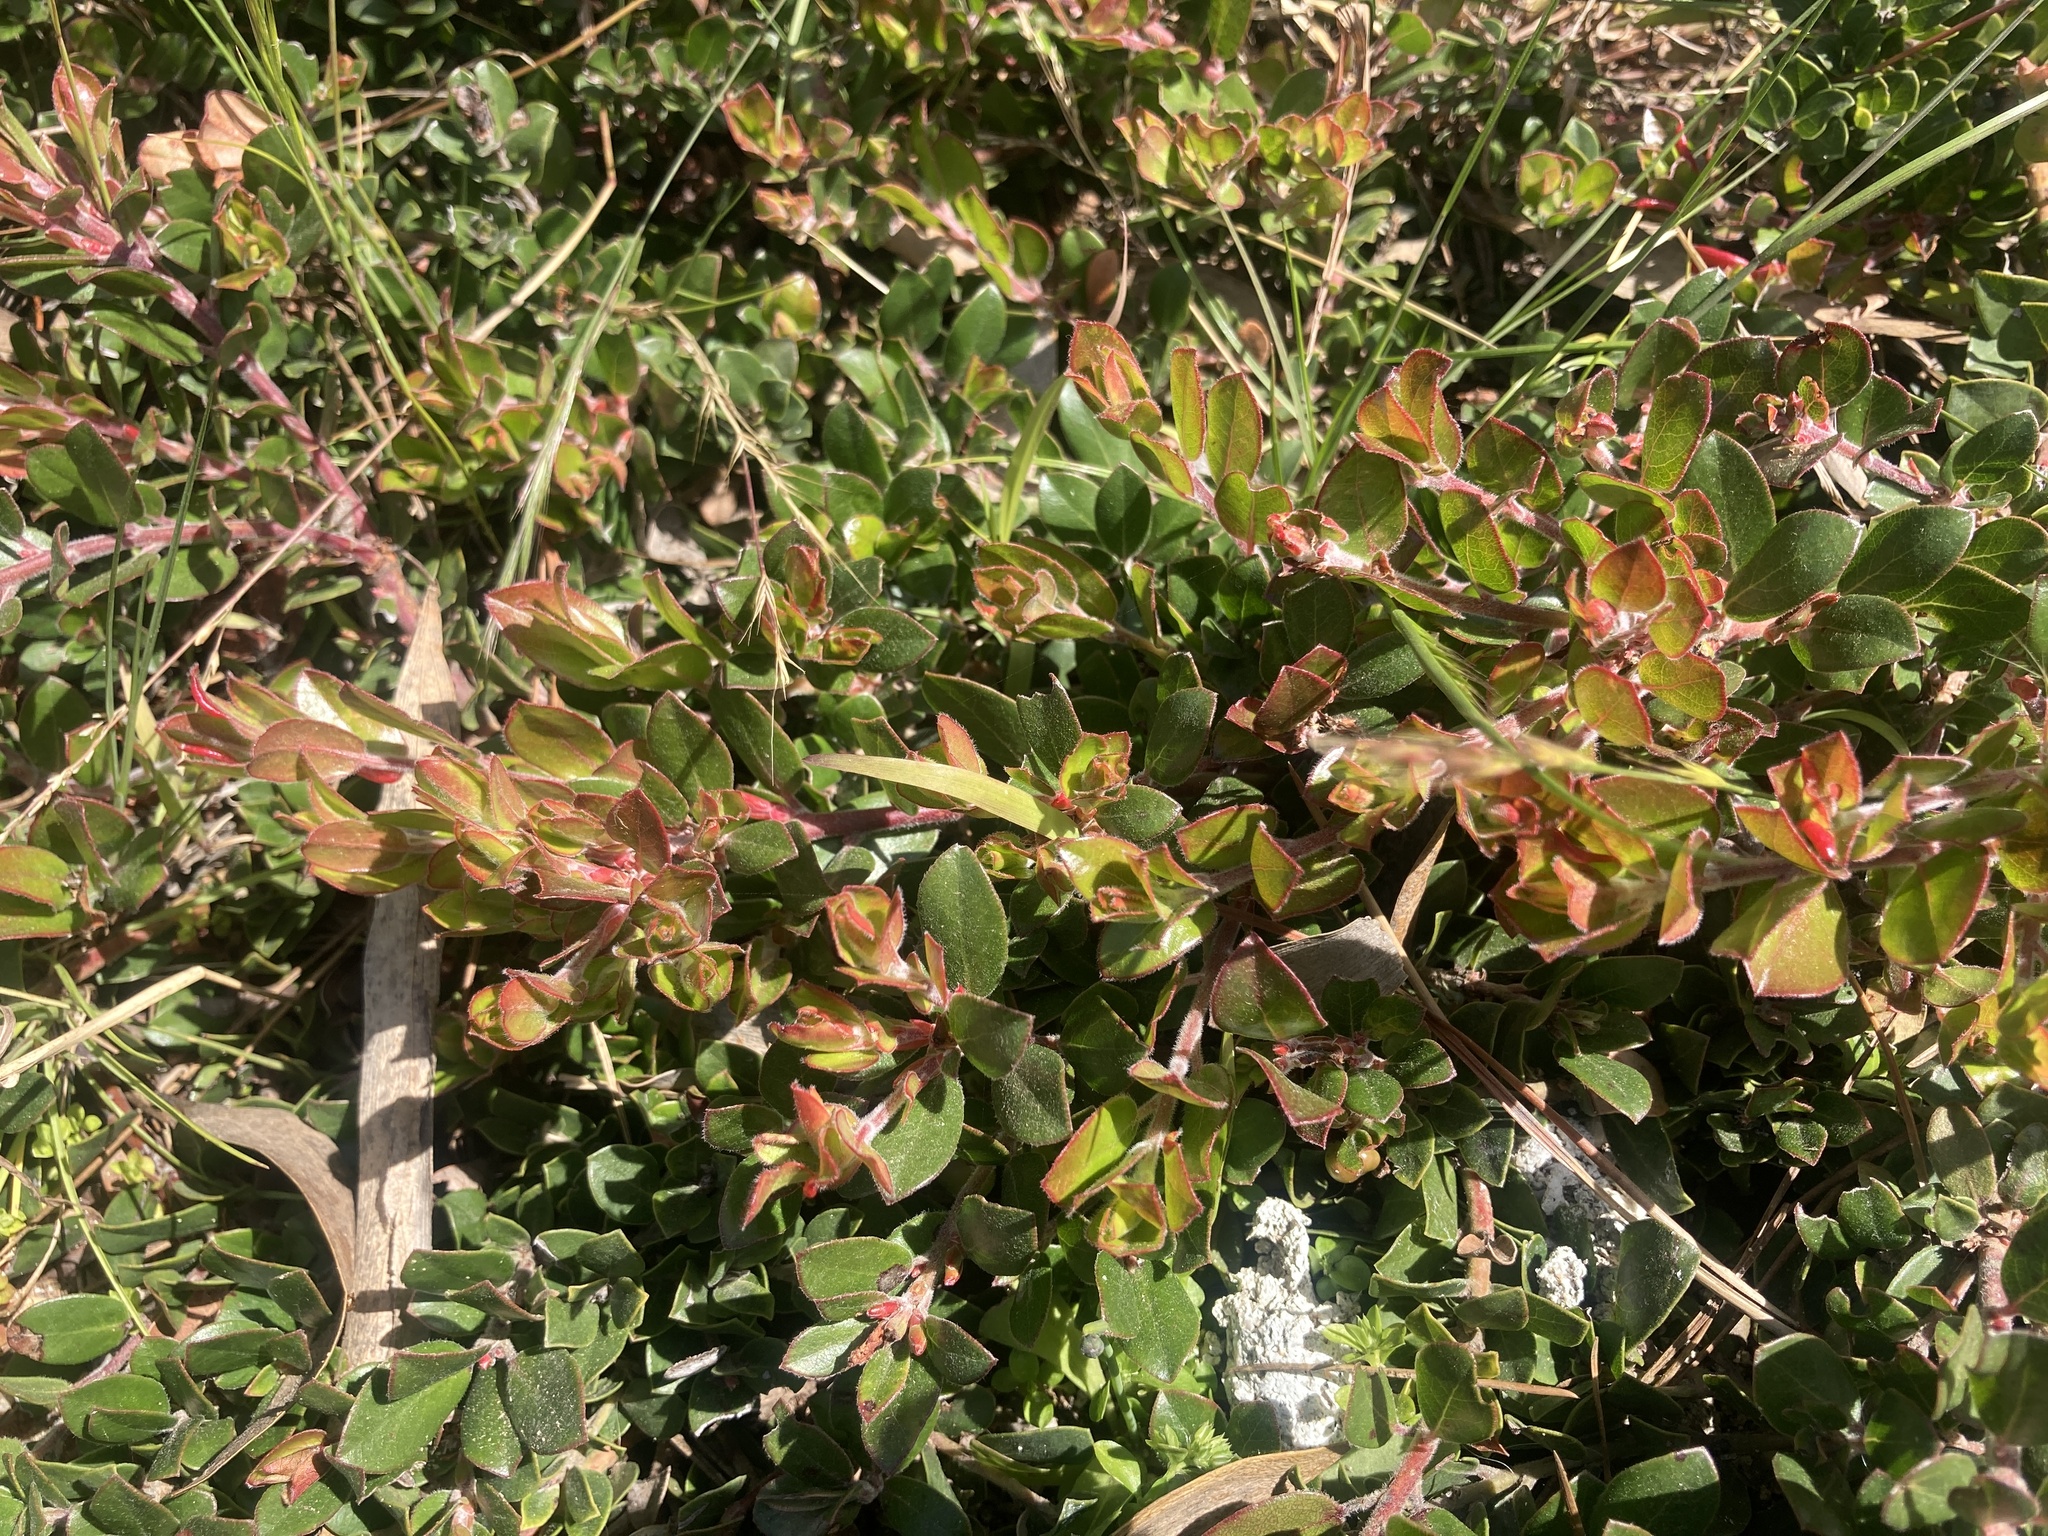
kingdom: Plantae
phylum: Tracheophyta
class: Magnoliopsida
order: Ericales
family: Ericaceae
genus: Arctostaphylos
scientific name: Arctostaphylos edmundsii
